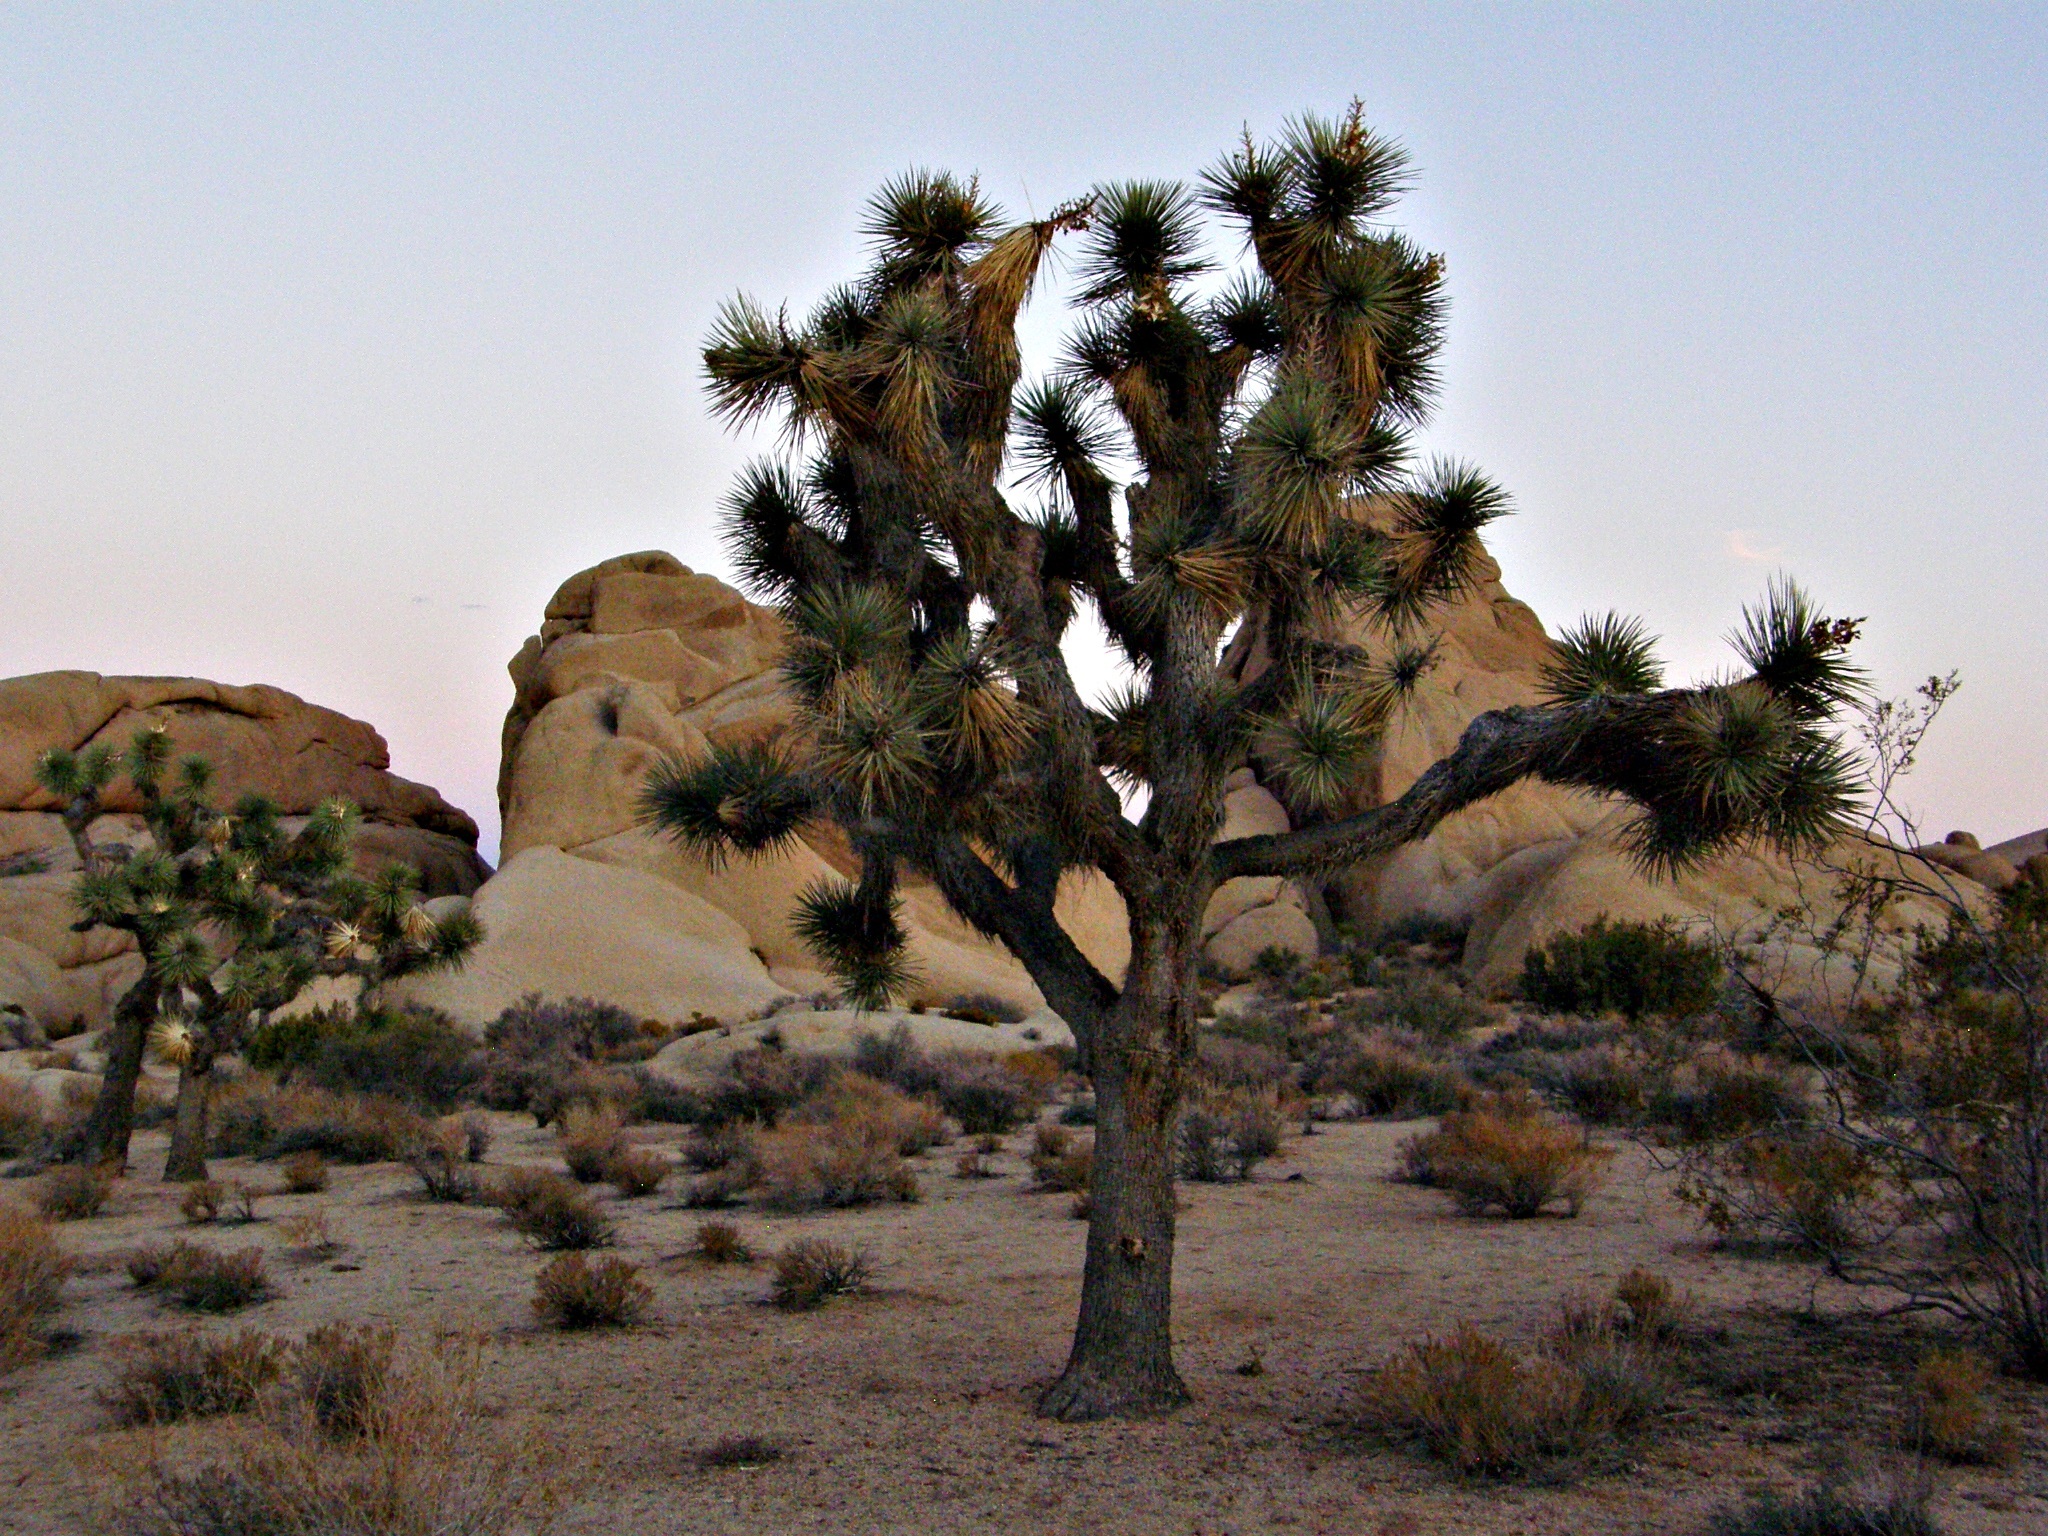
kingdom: Plantae
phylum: Tracheophyta
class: Liliopsida
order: Asparagales
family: Asparagaceae
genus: Yucca
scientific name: Yucca brevifolia
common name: Joshua tree
